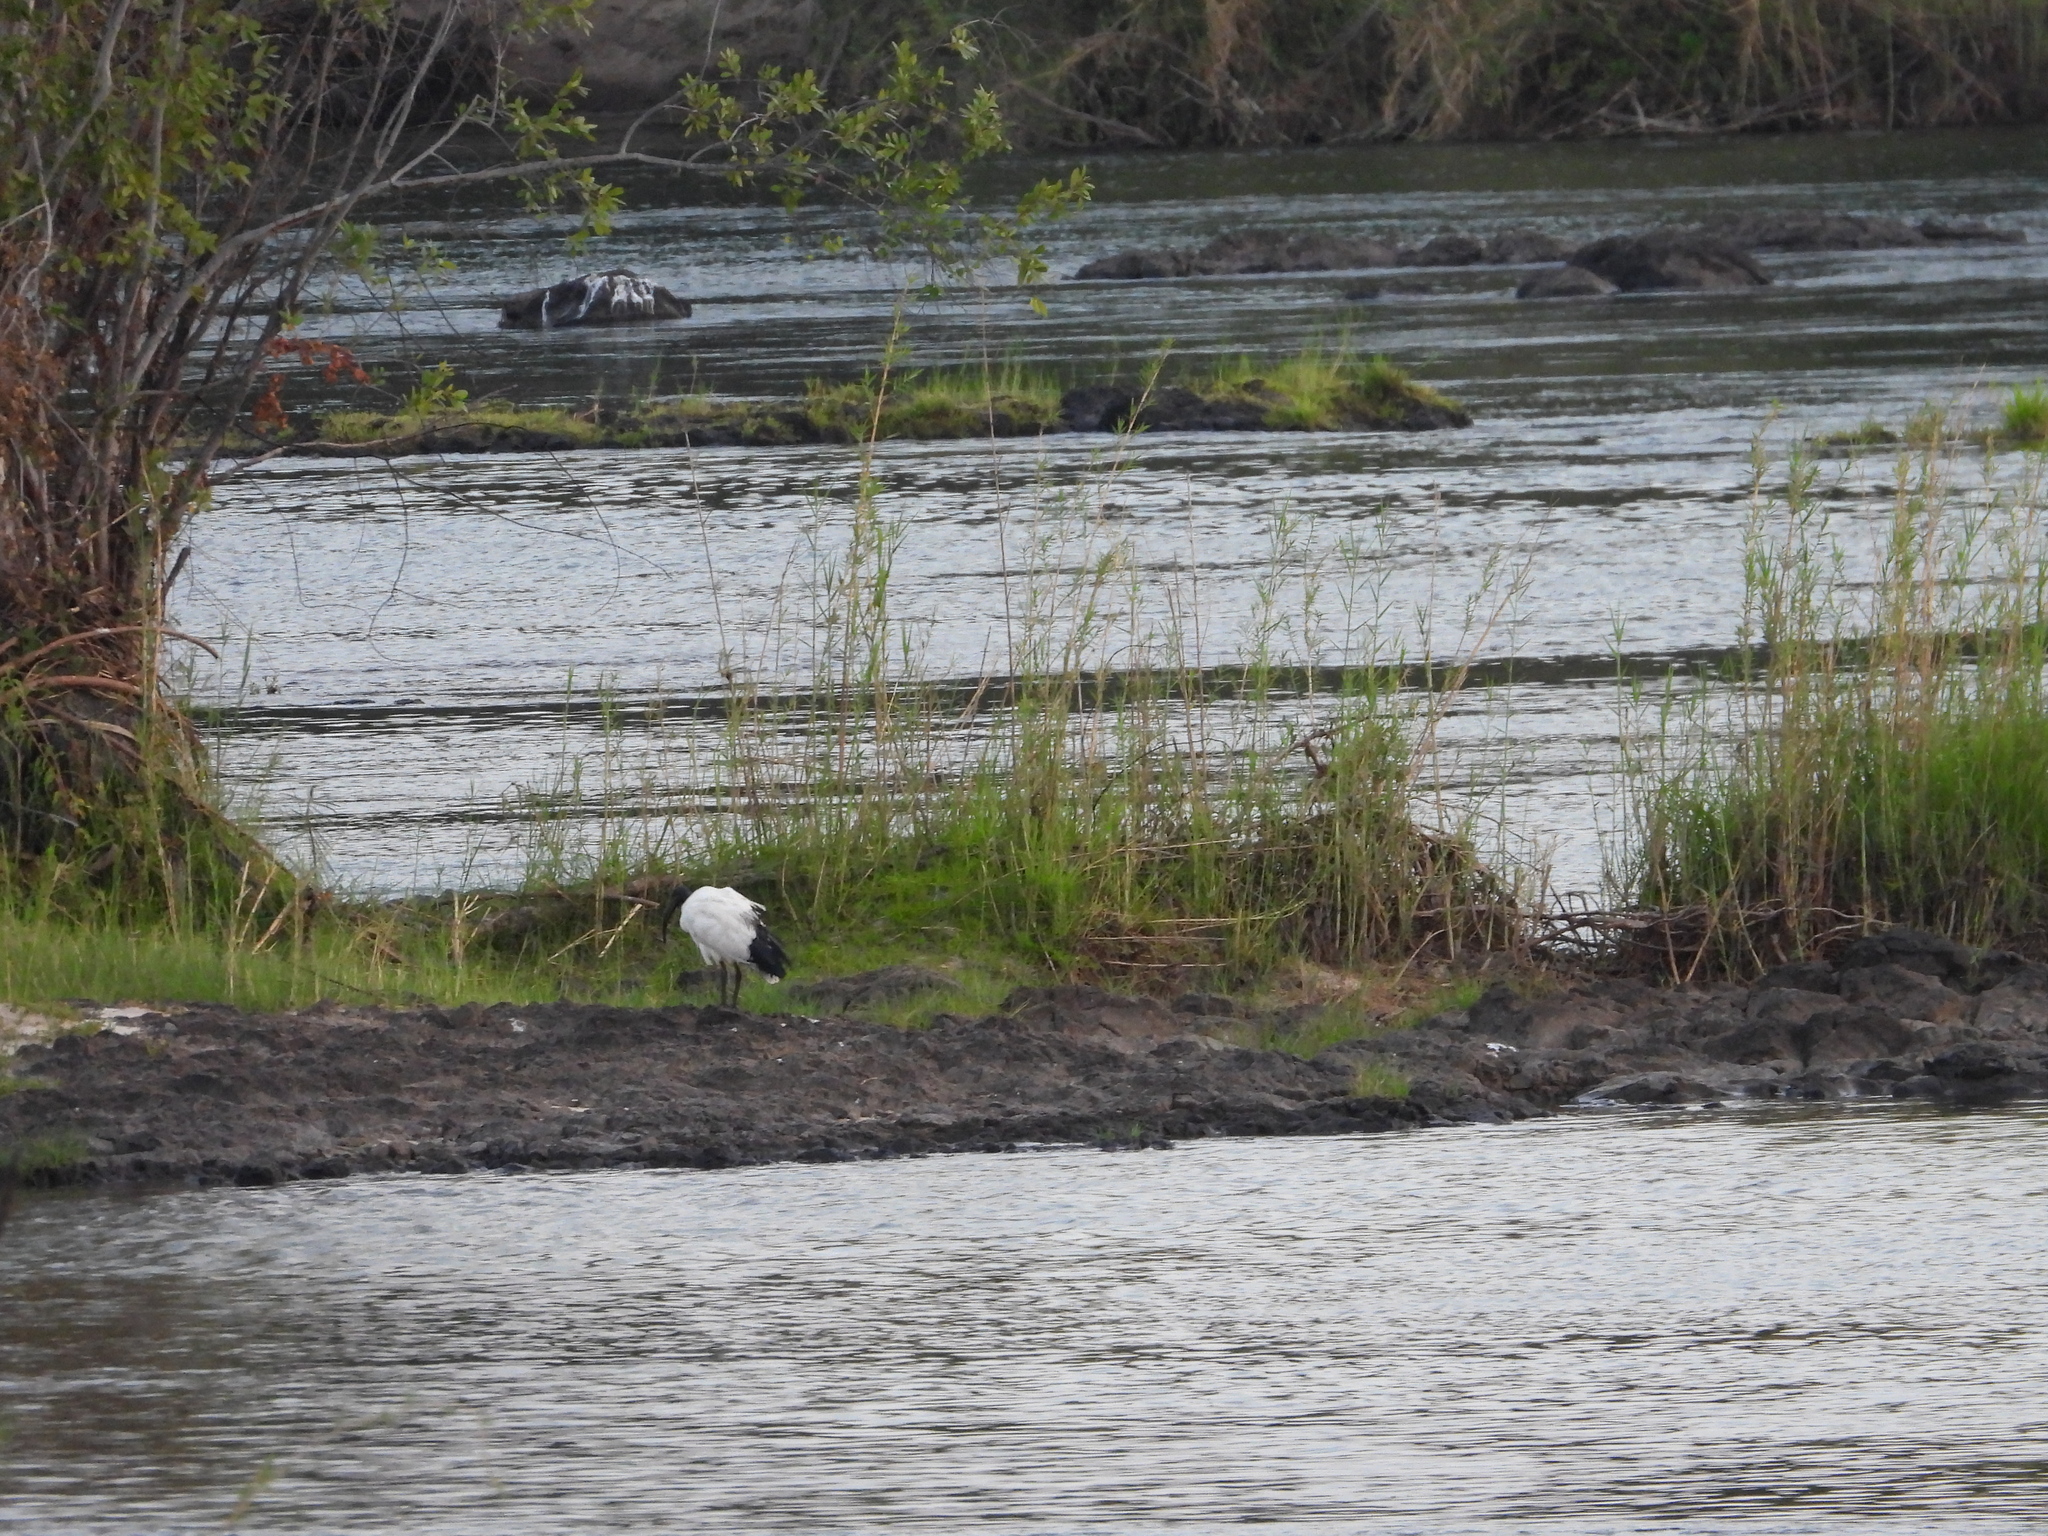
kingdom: Animalia
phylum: Chordata
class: Aves
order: Pelecaniformes
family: Threskiornithidae
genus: Threskiornis
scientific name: Threskiornis aethiopicus
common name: Sacred ibis
